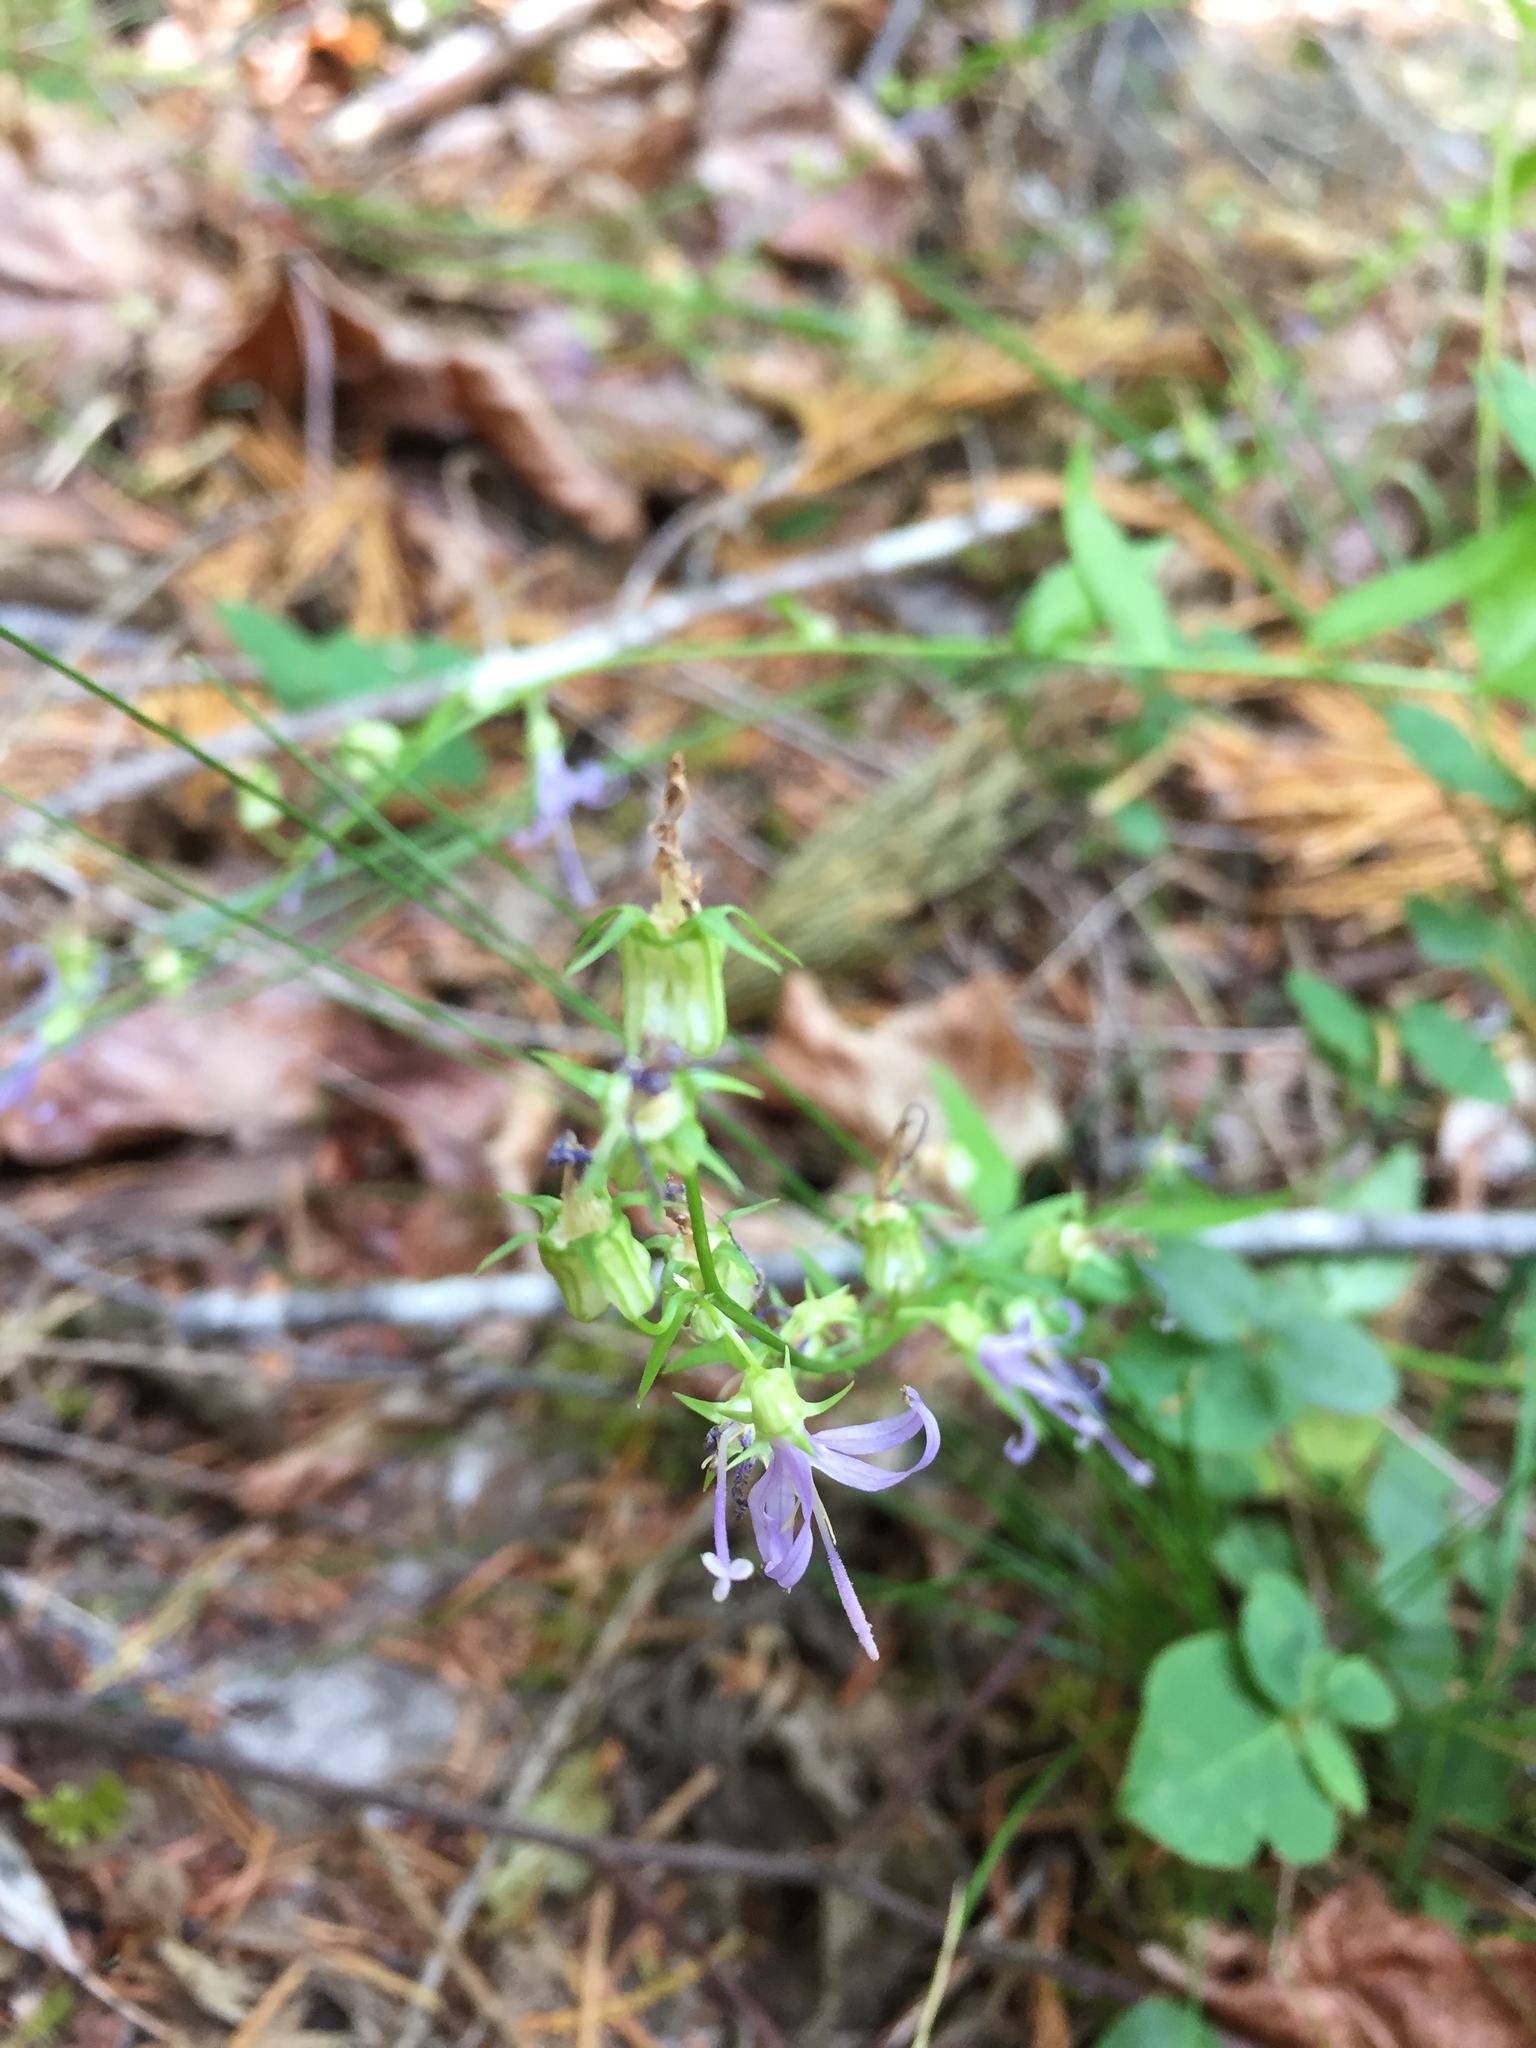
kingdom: Plantae
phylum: Tracheophyta
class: Magnoliopsida
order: Asterales
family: Campanulaceae
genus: Smithiastrum
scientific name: Smithiastrum prenanthoides
